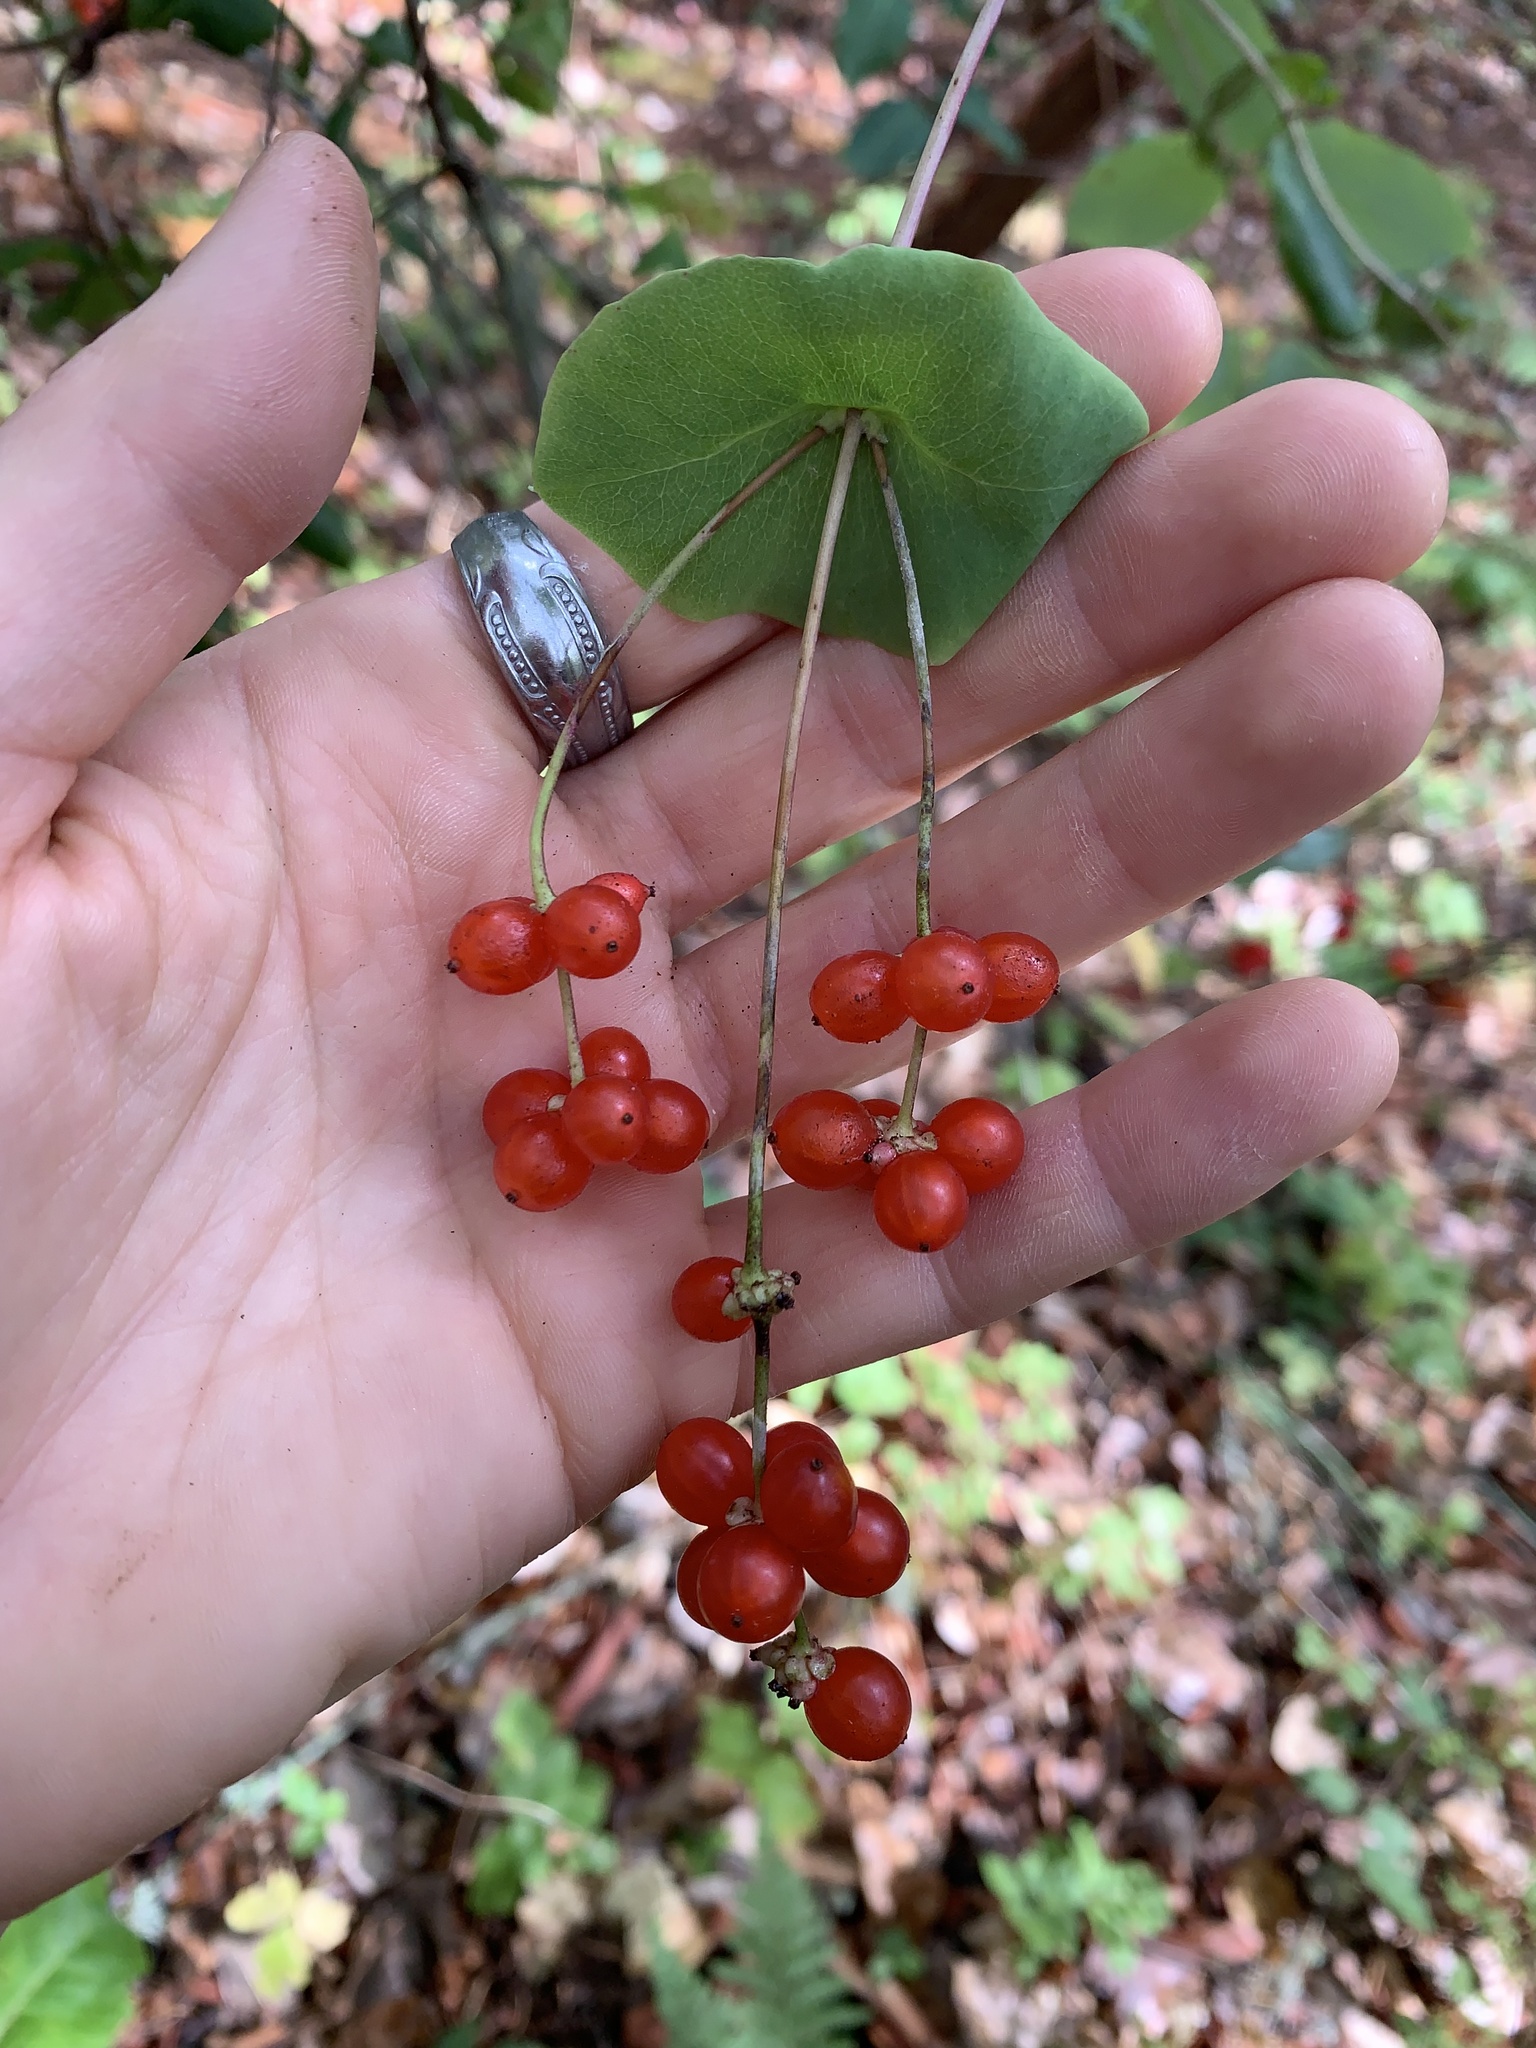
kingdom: Plantae
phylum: Tracheophyta
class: Magnoliopsida
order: Dipsacales
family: Caprifoliaceae
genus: Lonicera
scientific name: Lonicera hispidula
